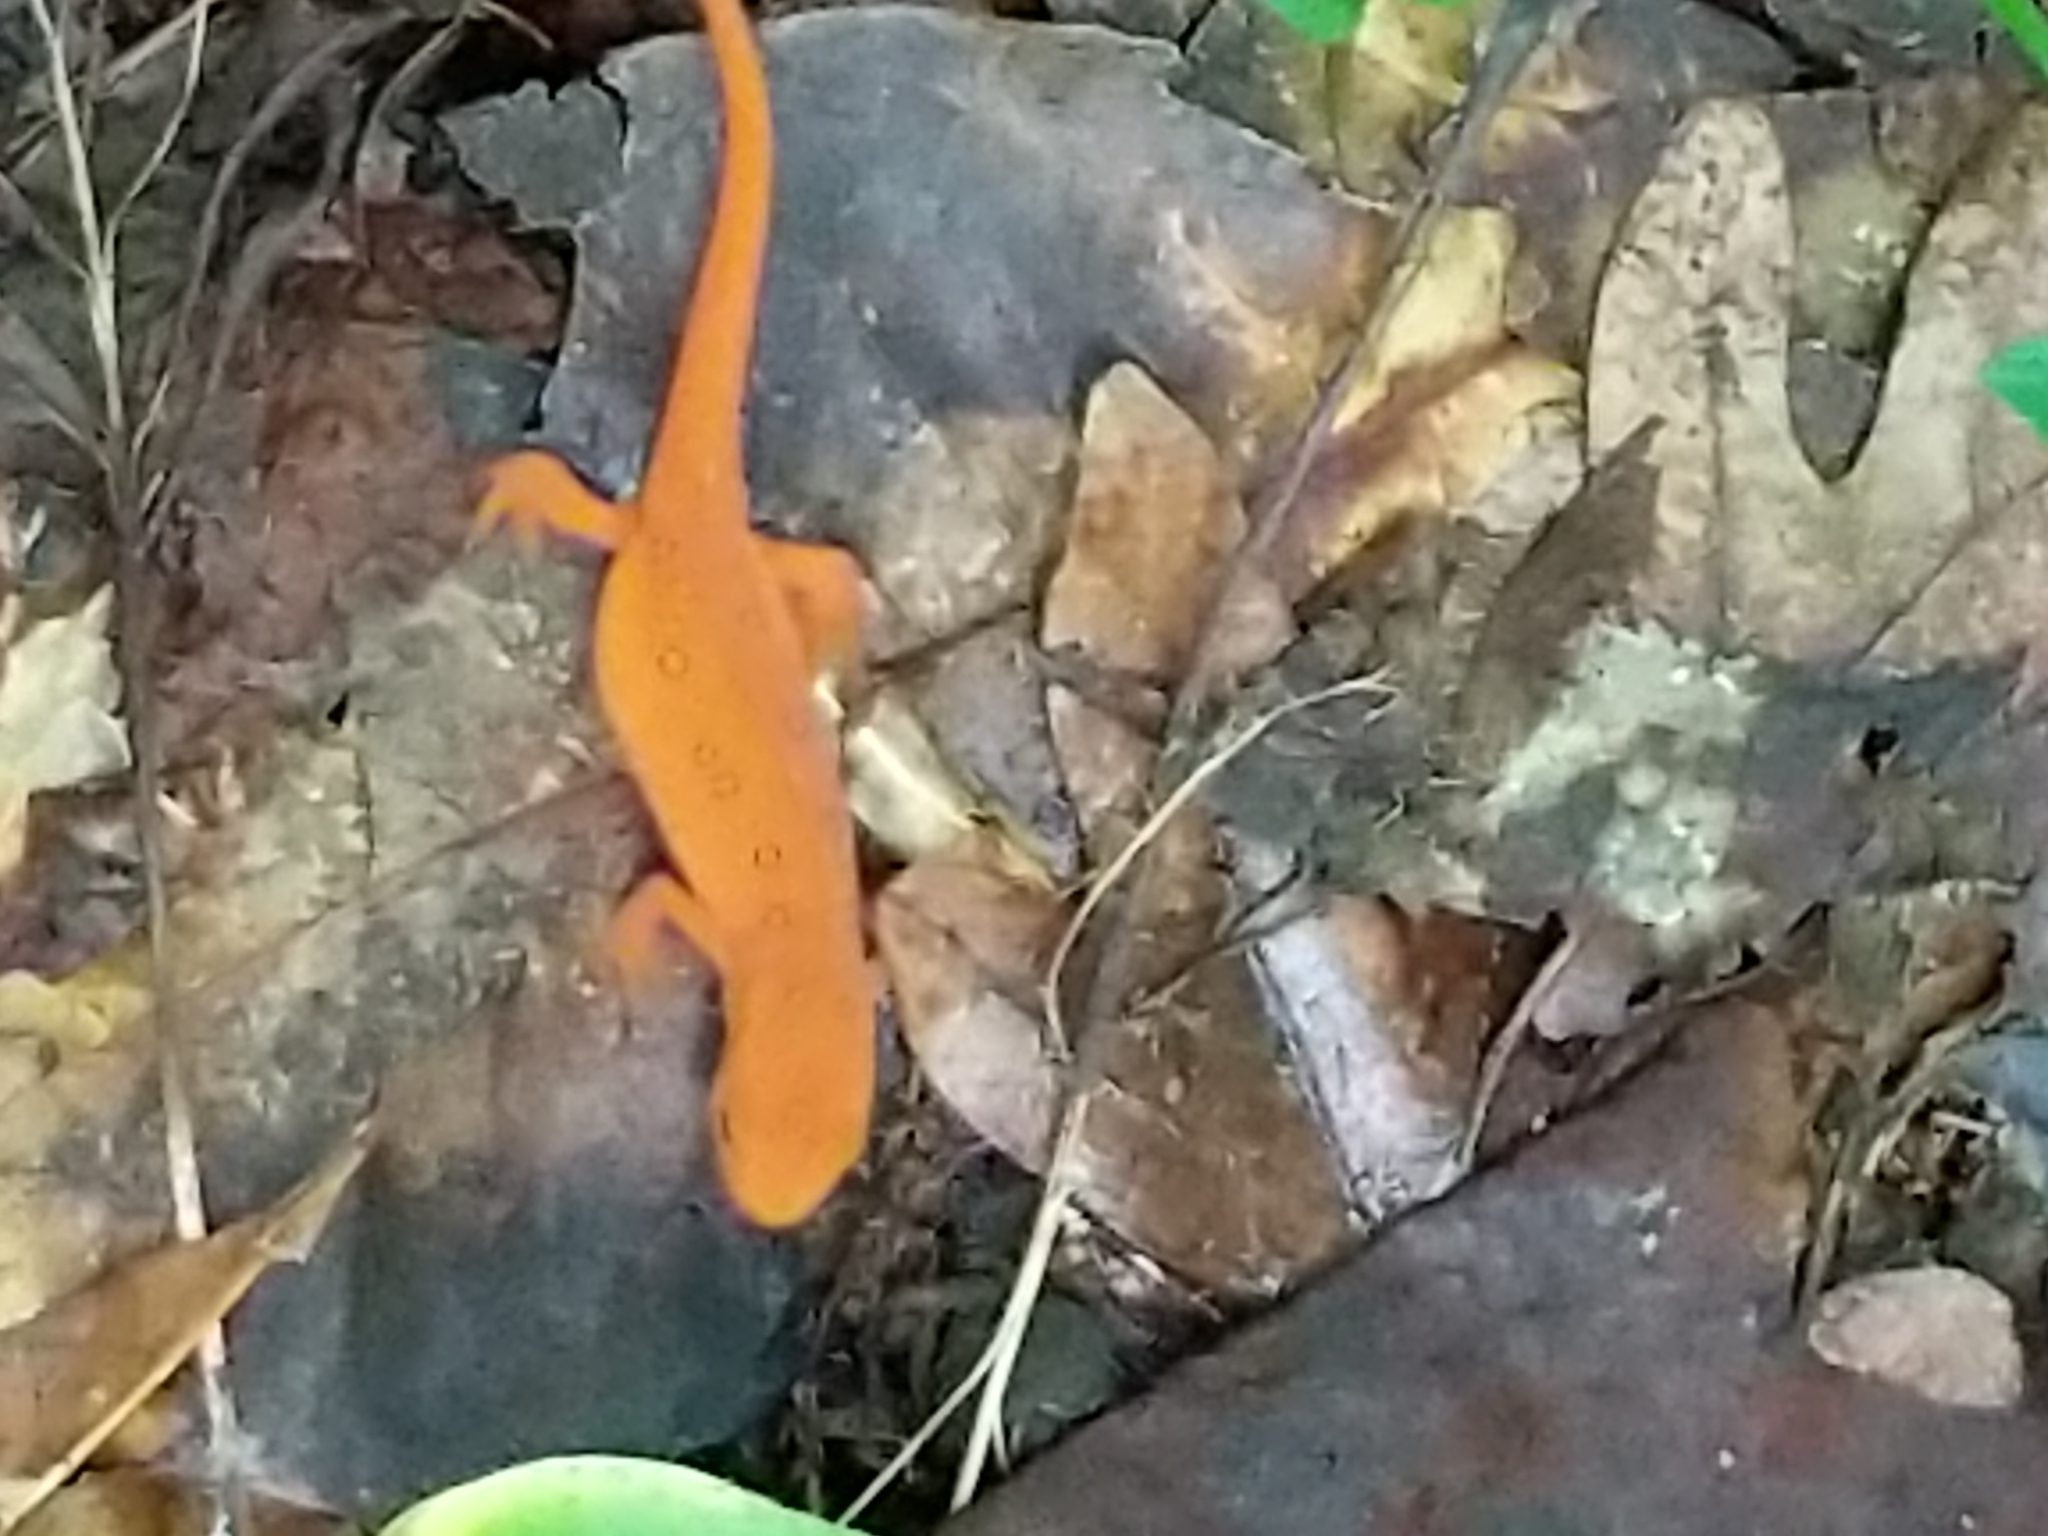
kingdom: Animalia
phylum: Chordata
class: Amphibia
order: Caudata
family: Salamandridae
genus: Notophthalmus
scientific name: Notophthalmus viridescens
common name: Eastern newt
